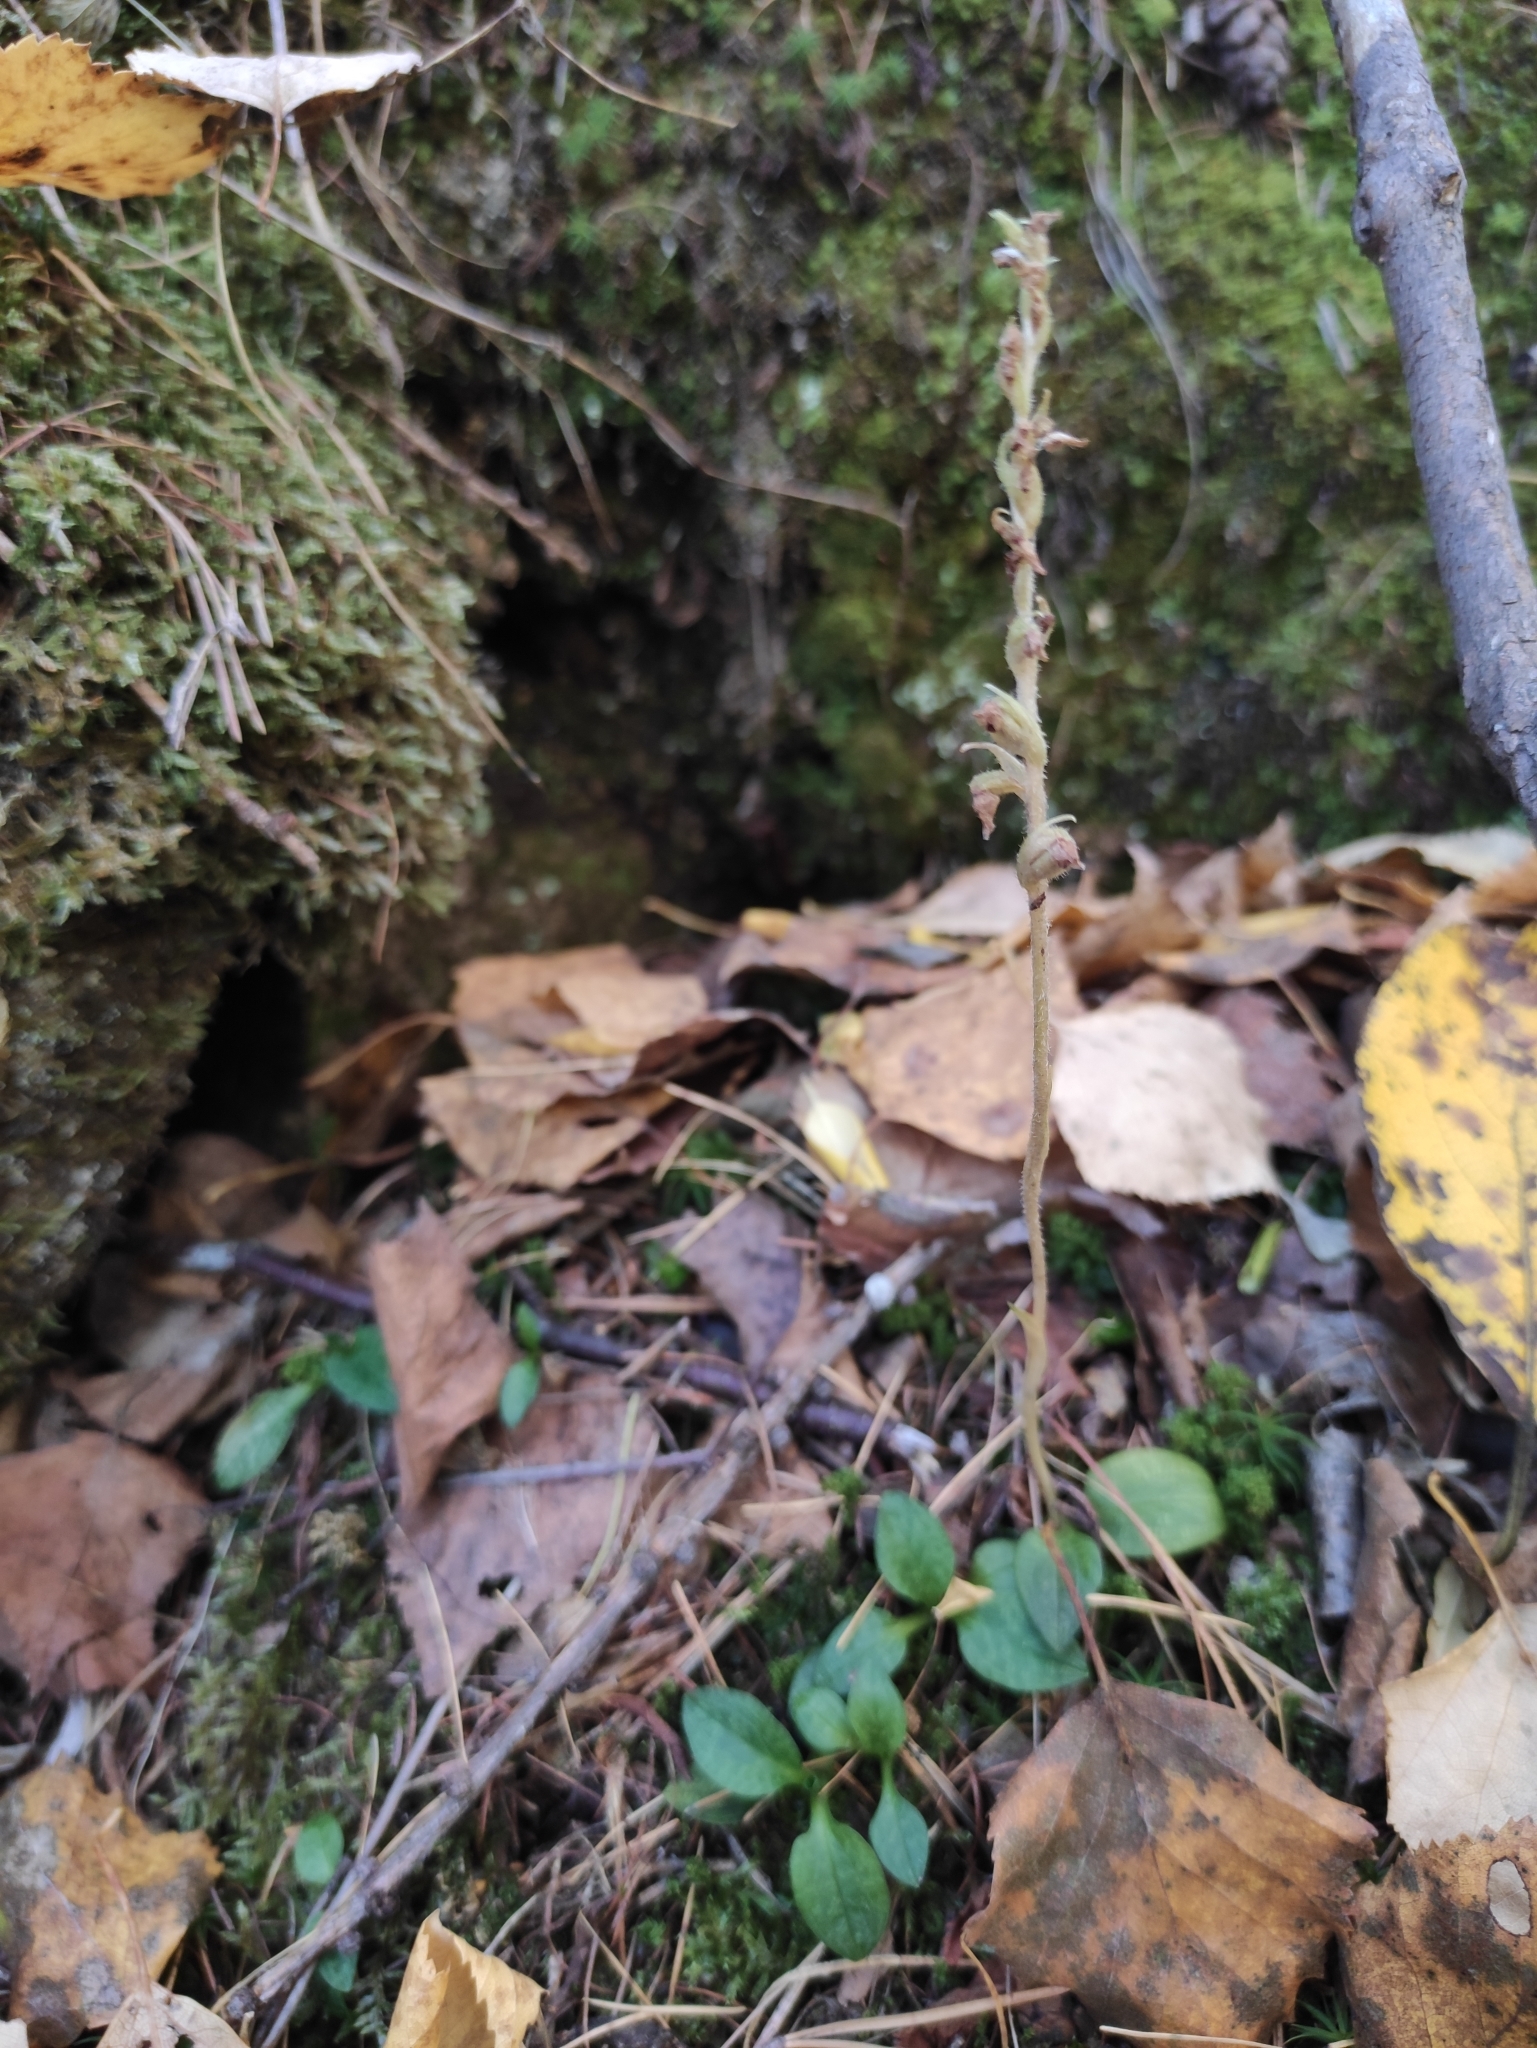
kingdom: Plantae
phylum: Tracheophyta
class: Liliopsida
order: Asparagales
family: Orchidaceae
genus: Goodyera
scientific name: Goodyera repens
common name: Creeping lady's-tresses
